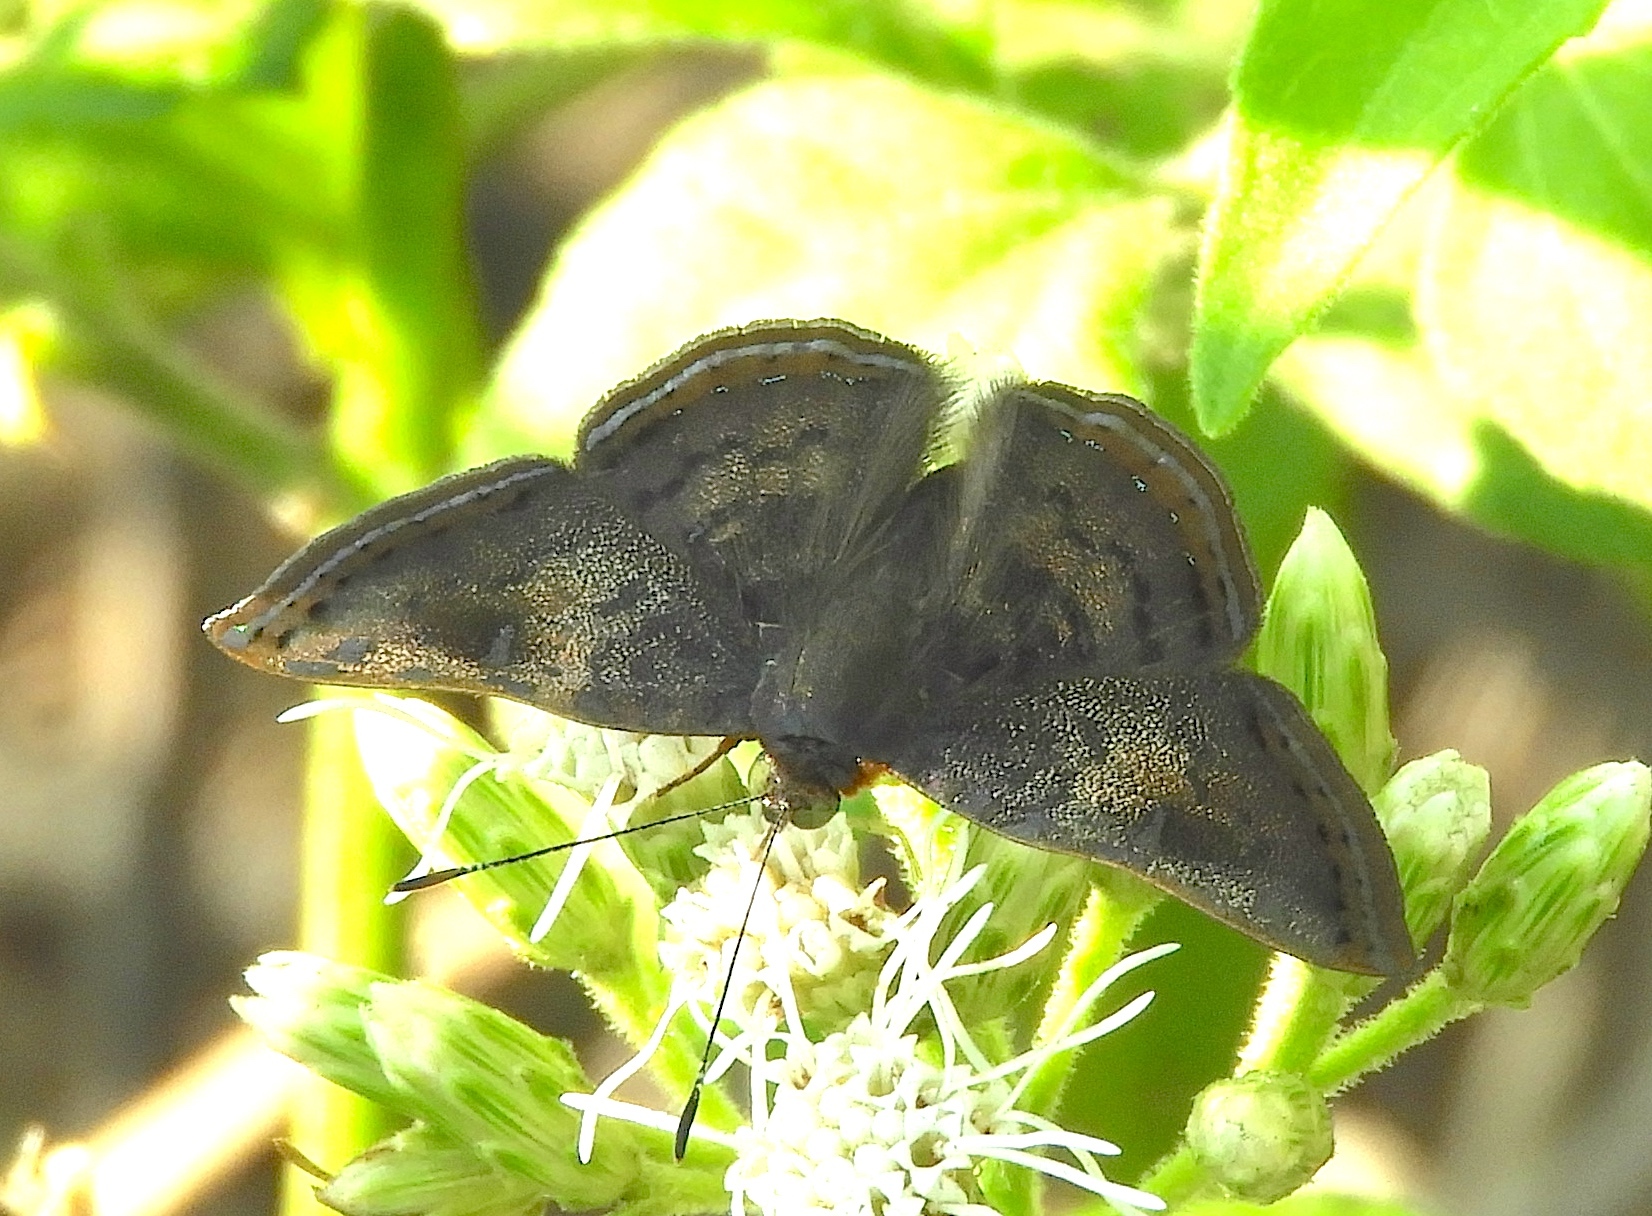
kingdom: Animalia
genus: Caria
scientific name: Caria ino
